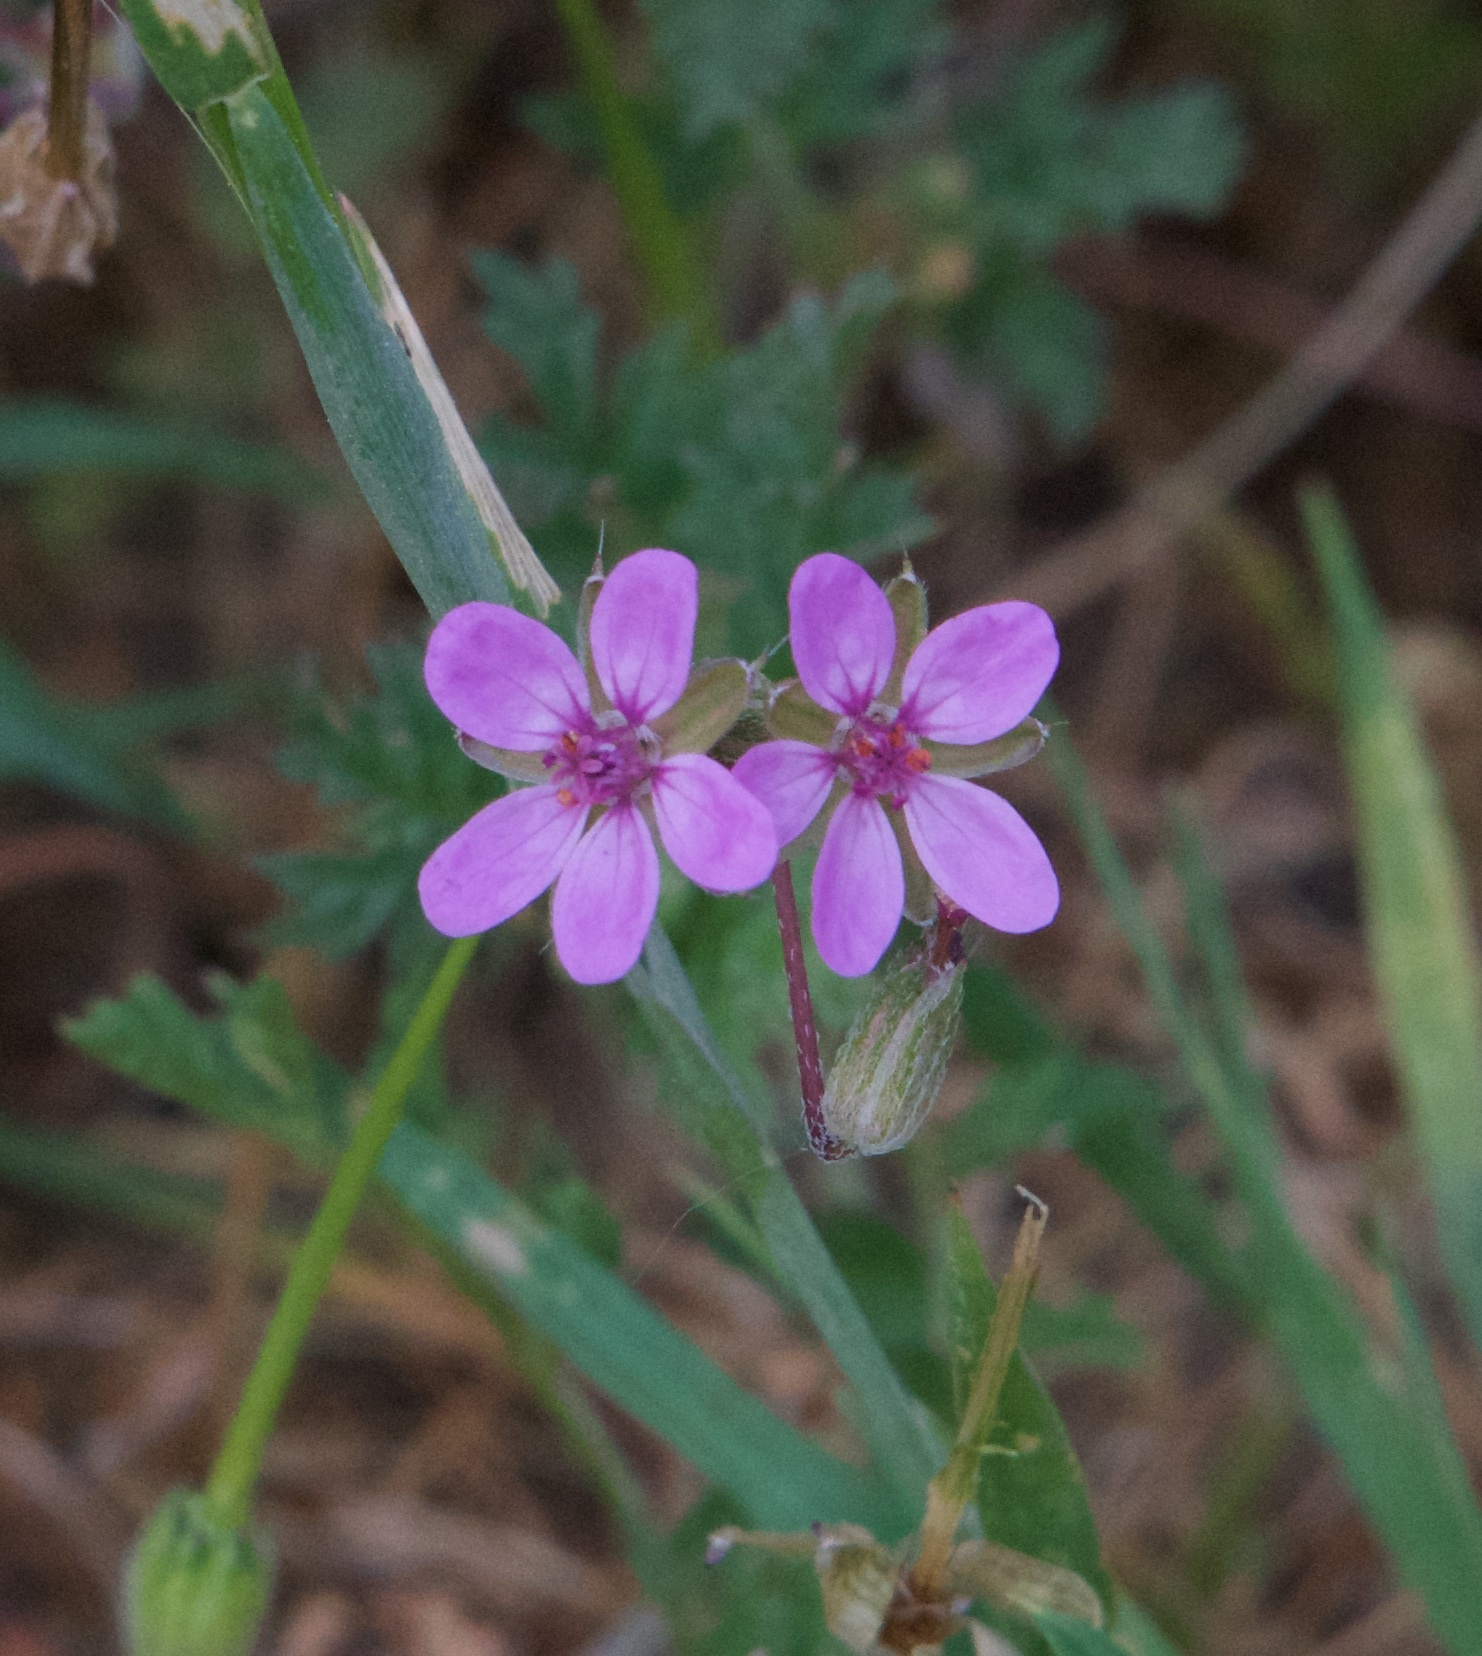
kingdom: Plantae
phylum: Tracheophyta
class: Magnoliopsida
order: Geraniales
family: Geraniaceae
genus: Erodium
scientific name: Erodium cicutarium
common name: Common stork's-bill
